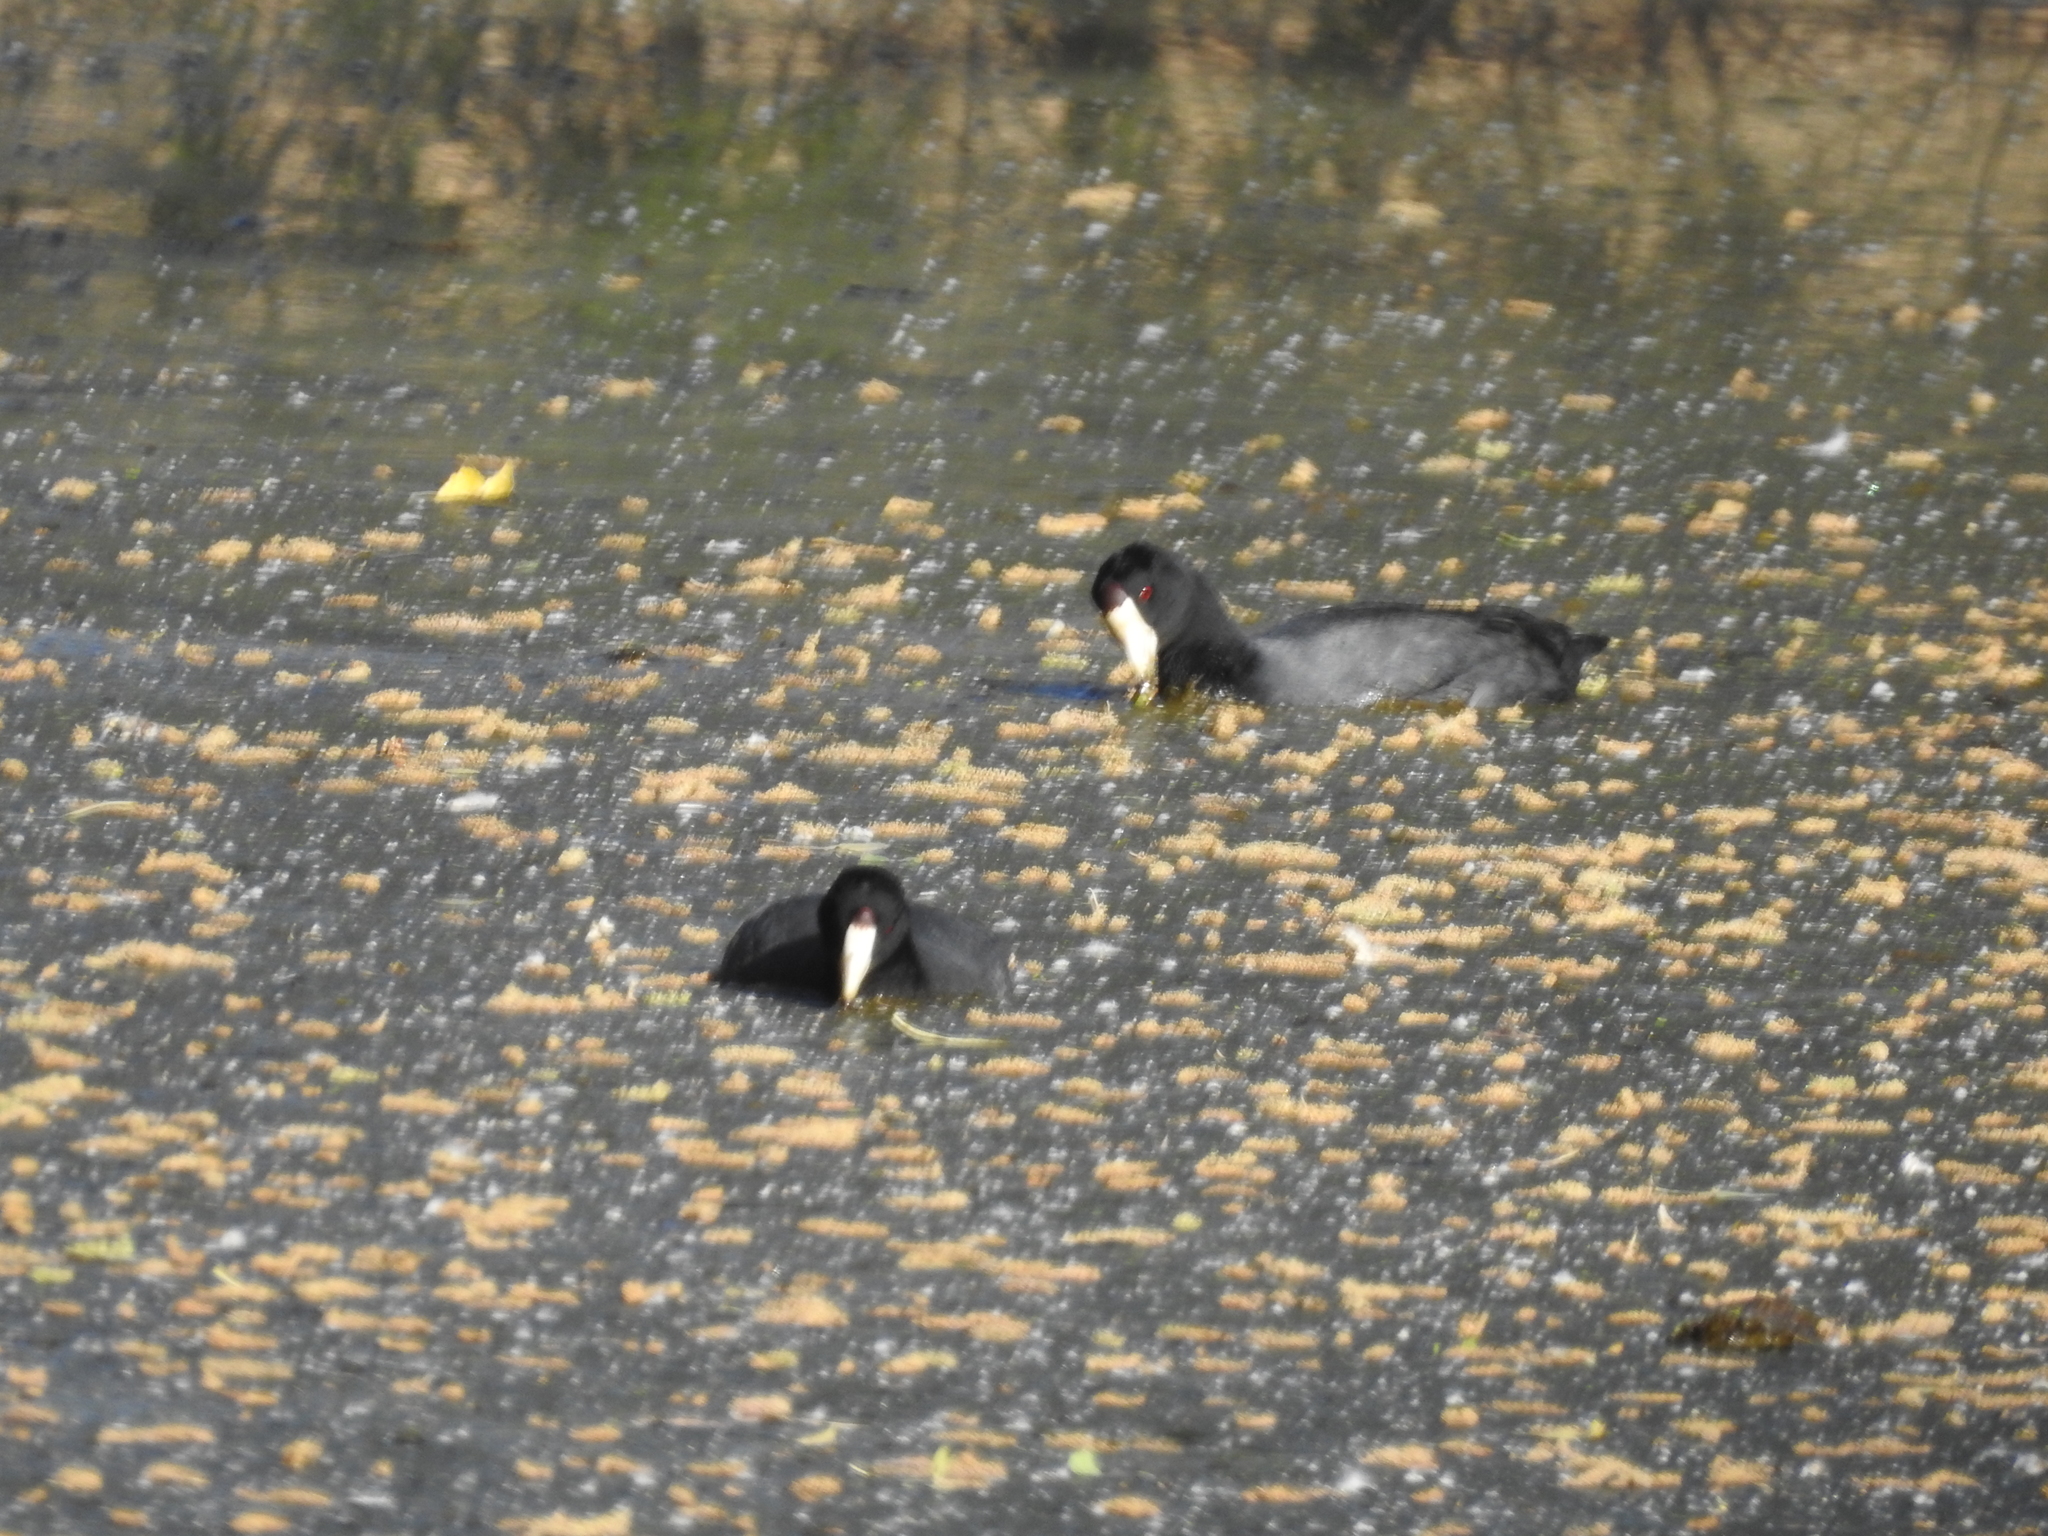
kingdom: Animalia
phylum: Chordata
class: Aves
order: Gruiformes
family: Rallidae
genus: Fulica
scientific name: Fulica americana
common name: American coot
